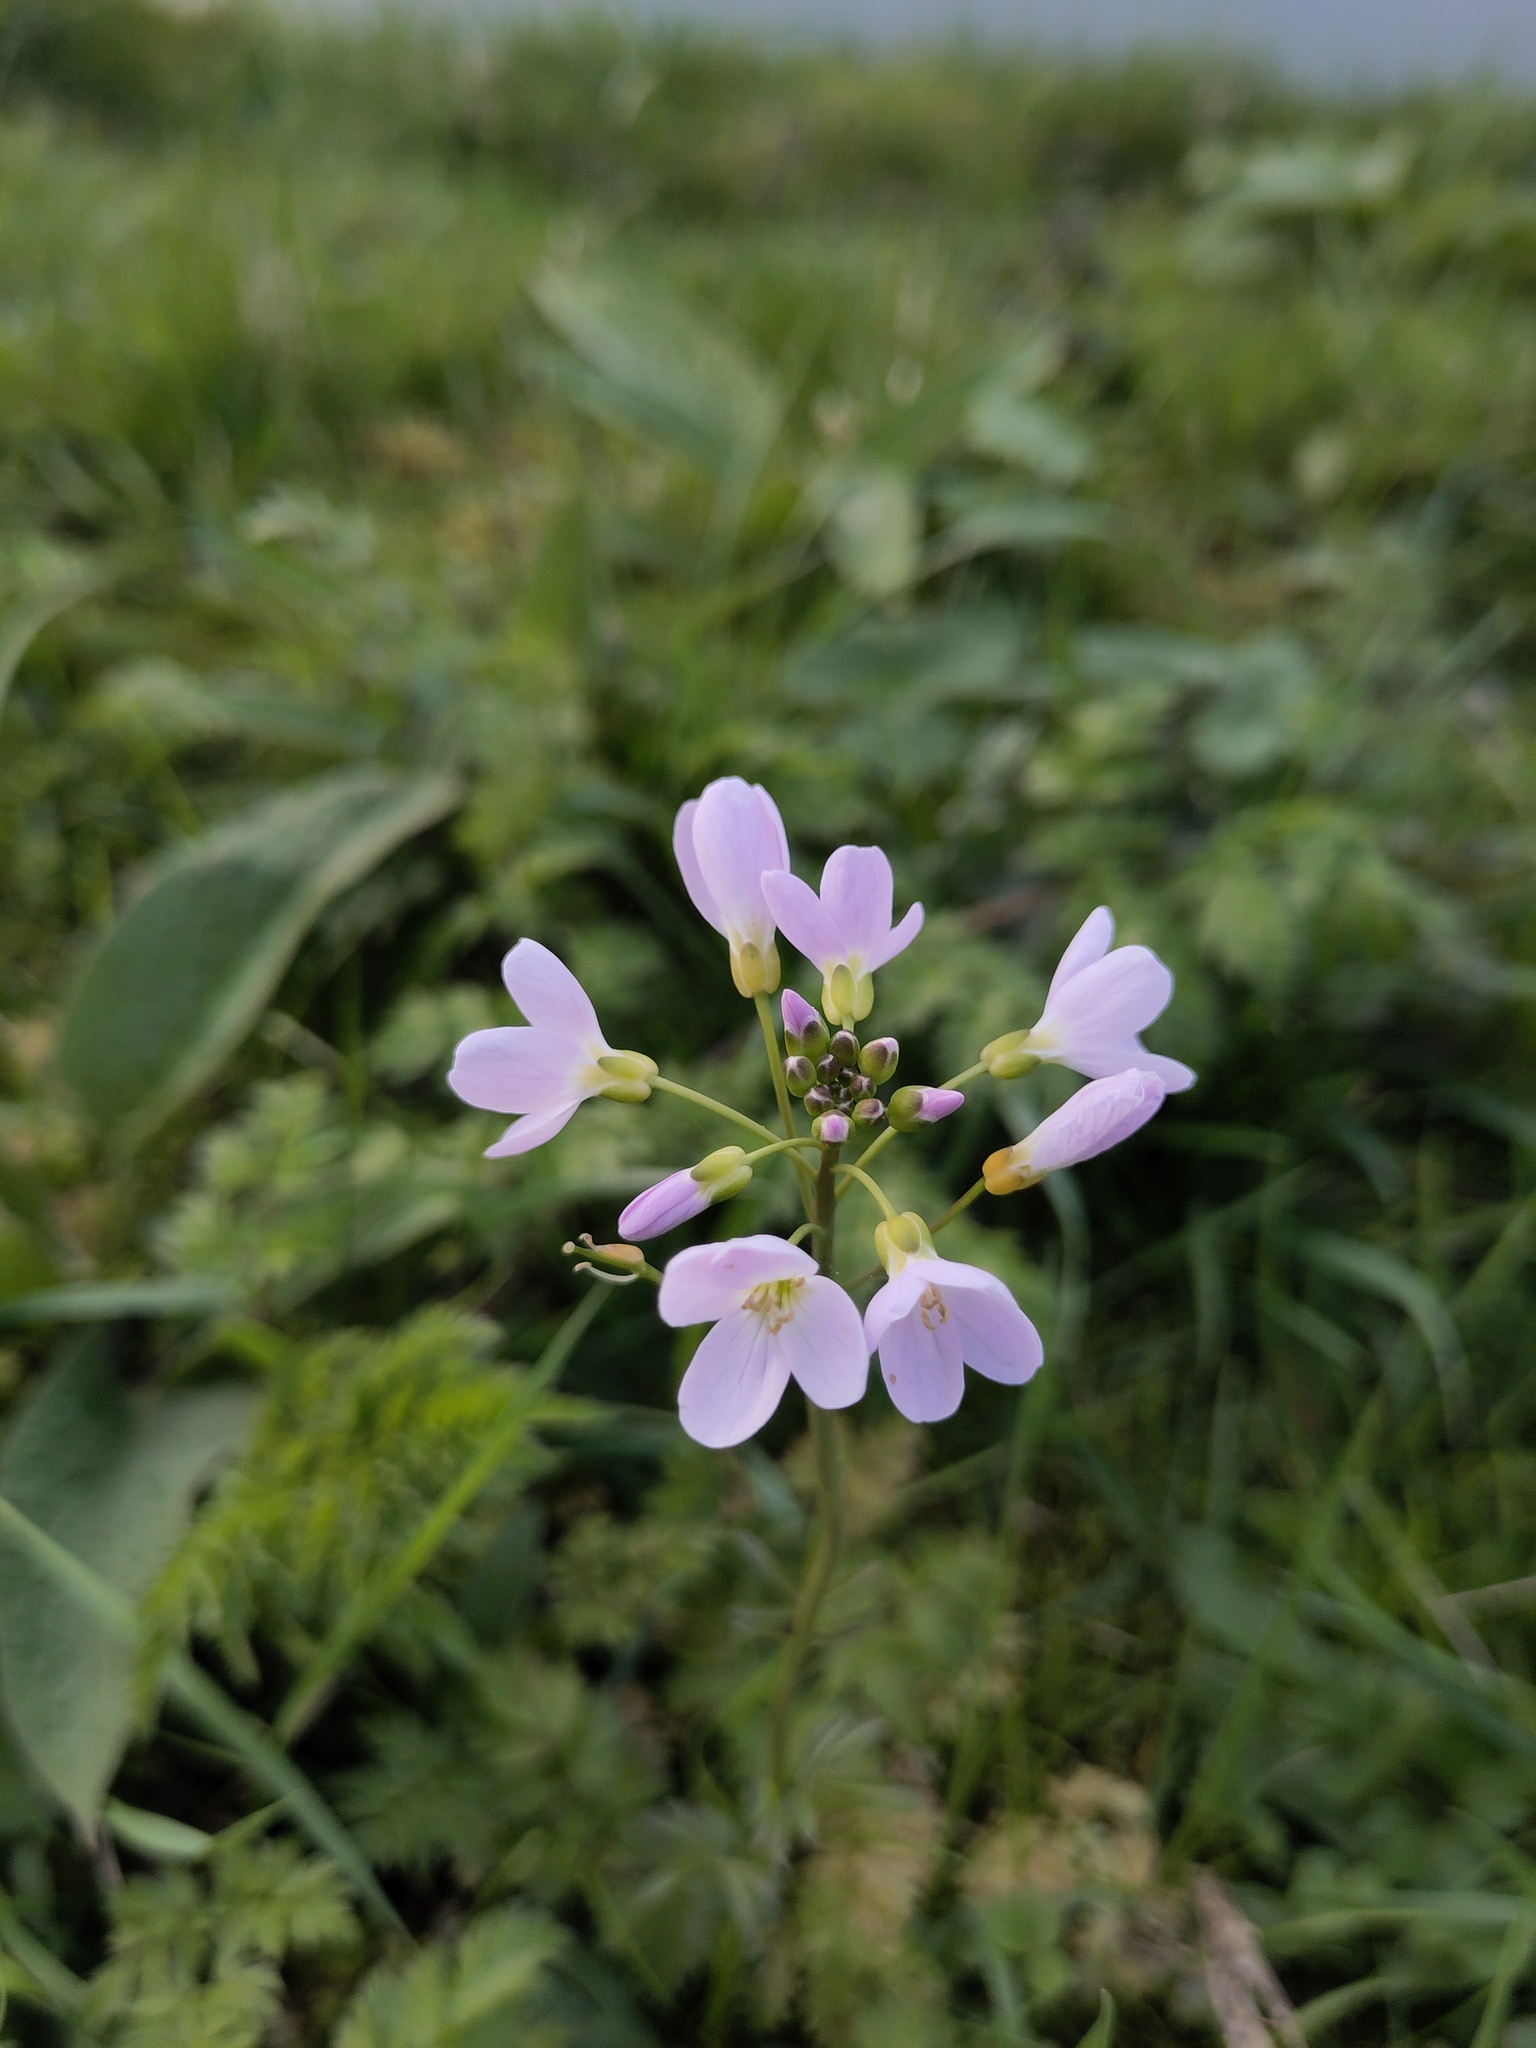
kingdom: Plantae
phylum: Tracheophyta
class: Magnoliopsida
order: Brassicales
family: Brassicaceae
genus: Cardamine
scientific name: Cardamine pratensis
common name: Cuckoo flower
